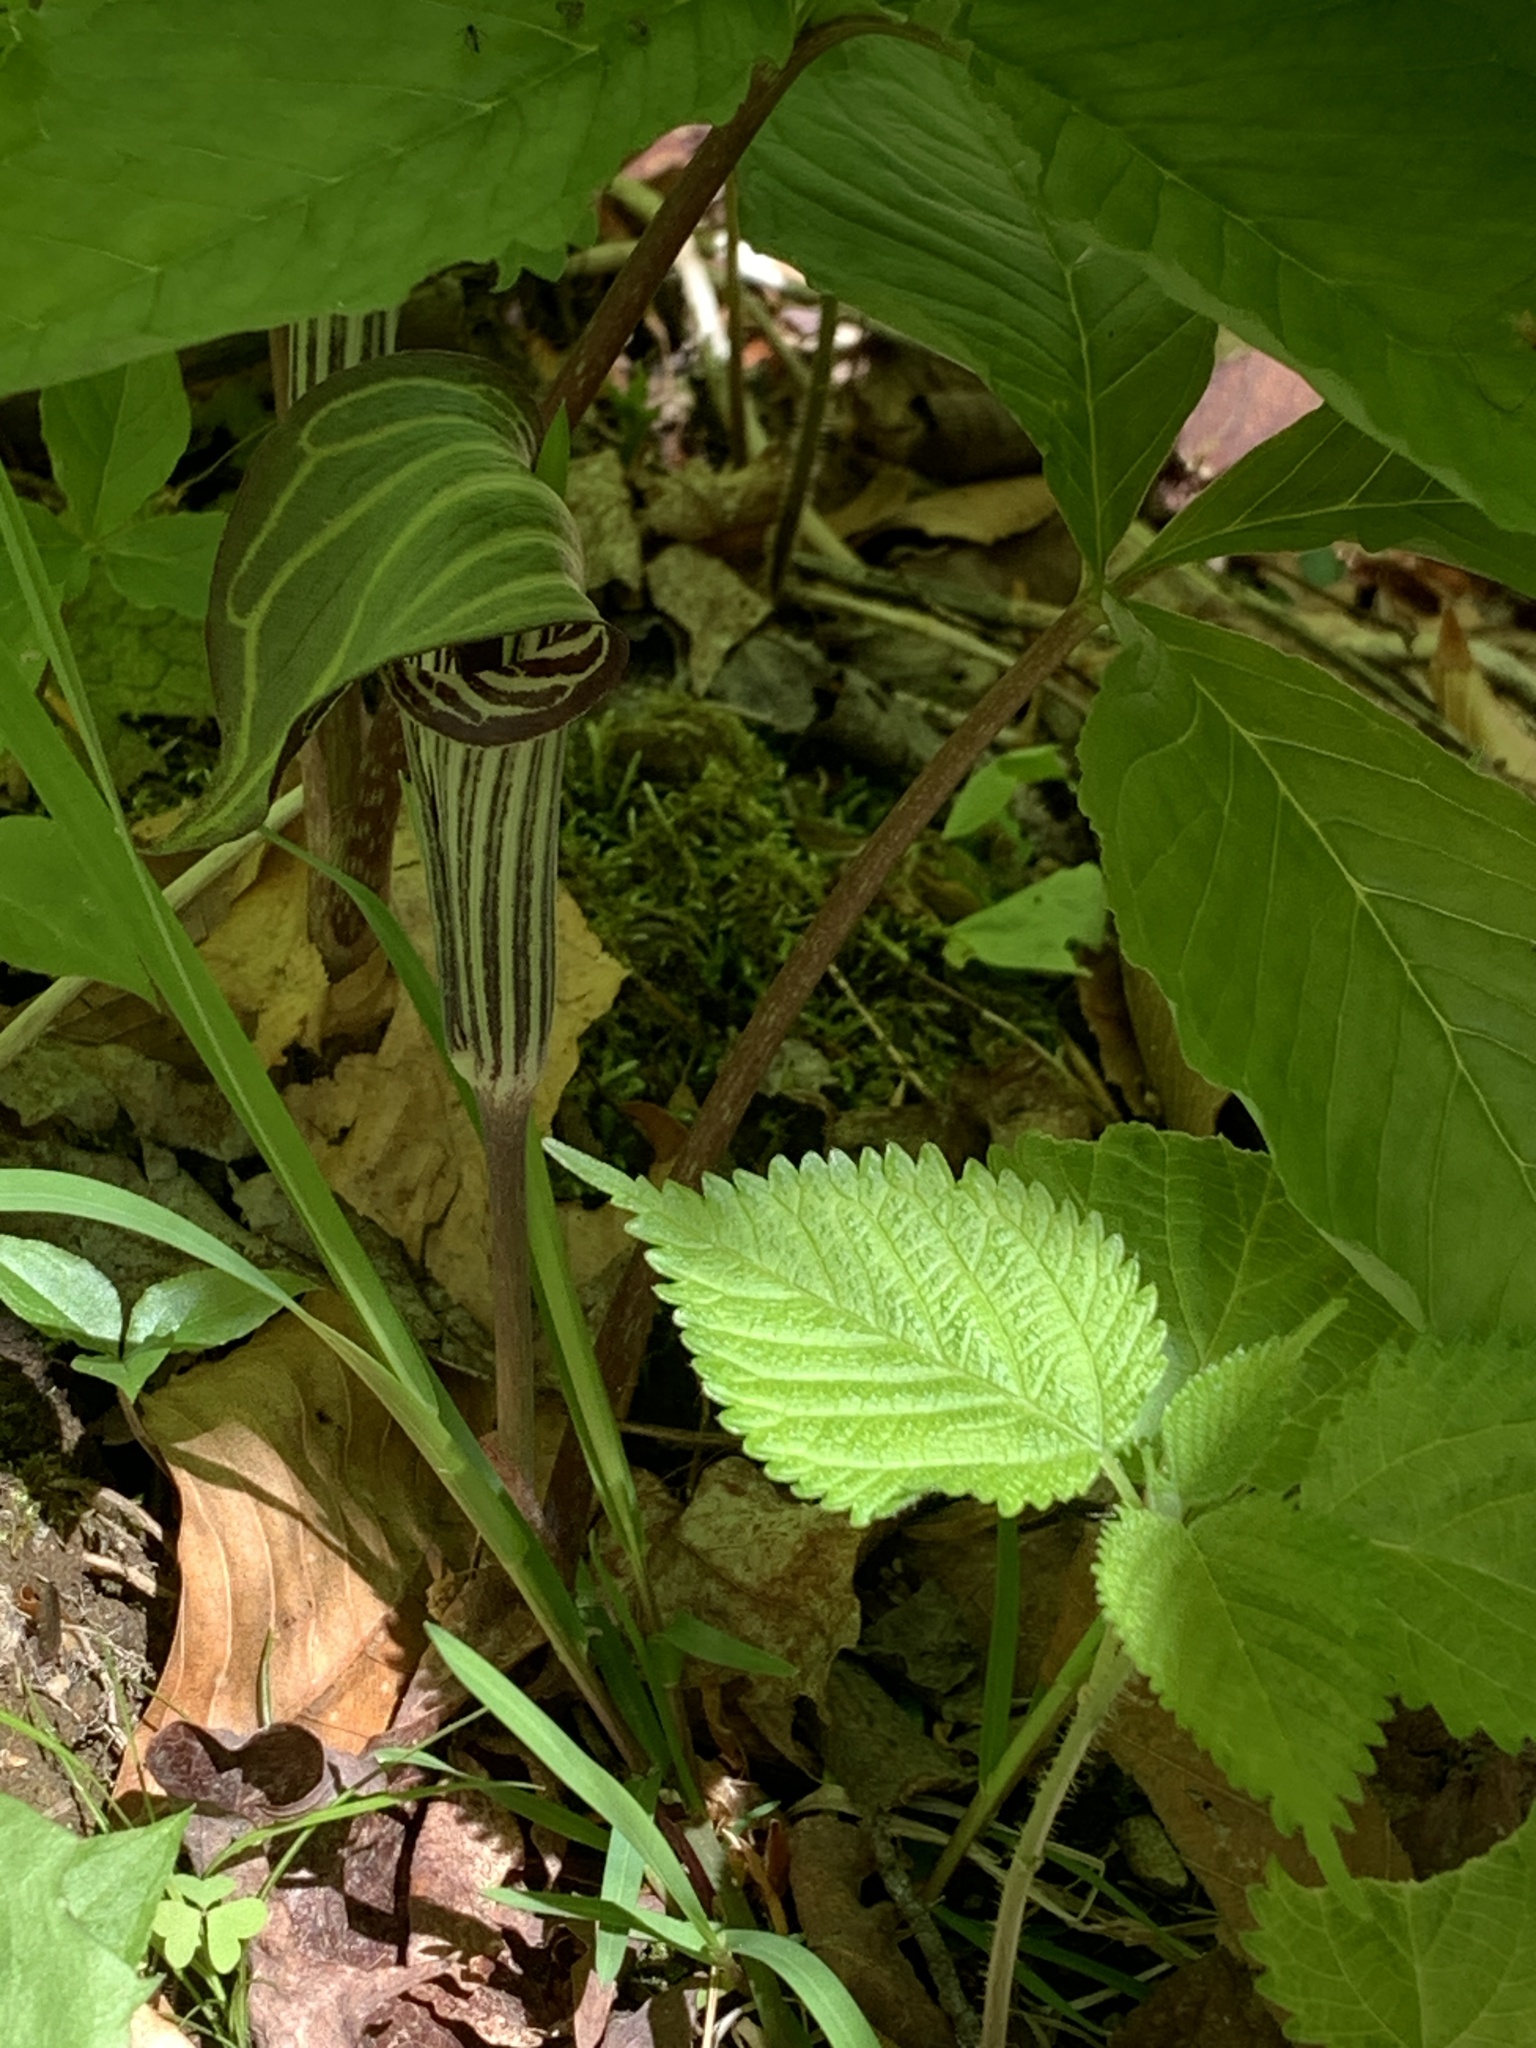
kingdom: Plantae
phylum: Tracheophyta
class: Liliopsida
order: Alismatales
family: Araceae
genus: Arisaema
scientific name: Arisaema triphyllum
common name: Jack-in-the-pulpit
